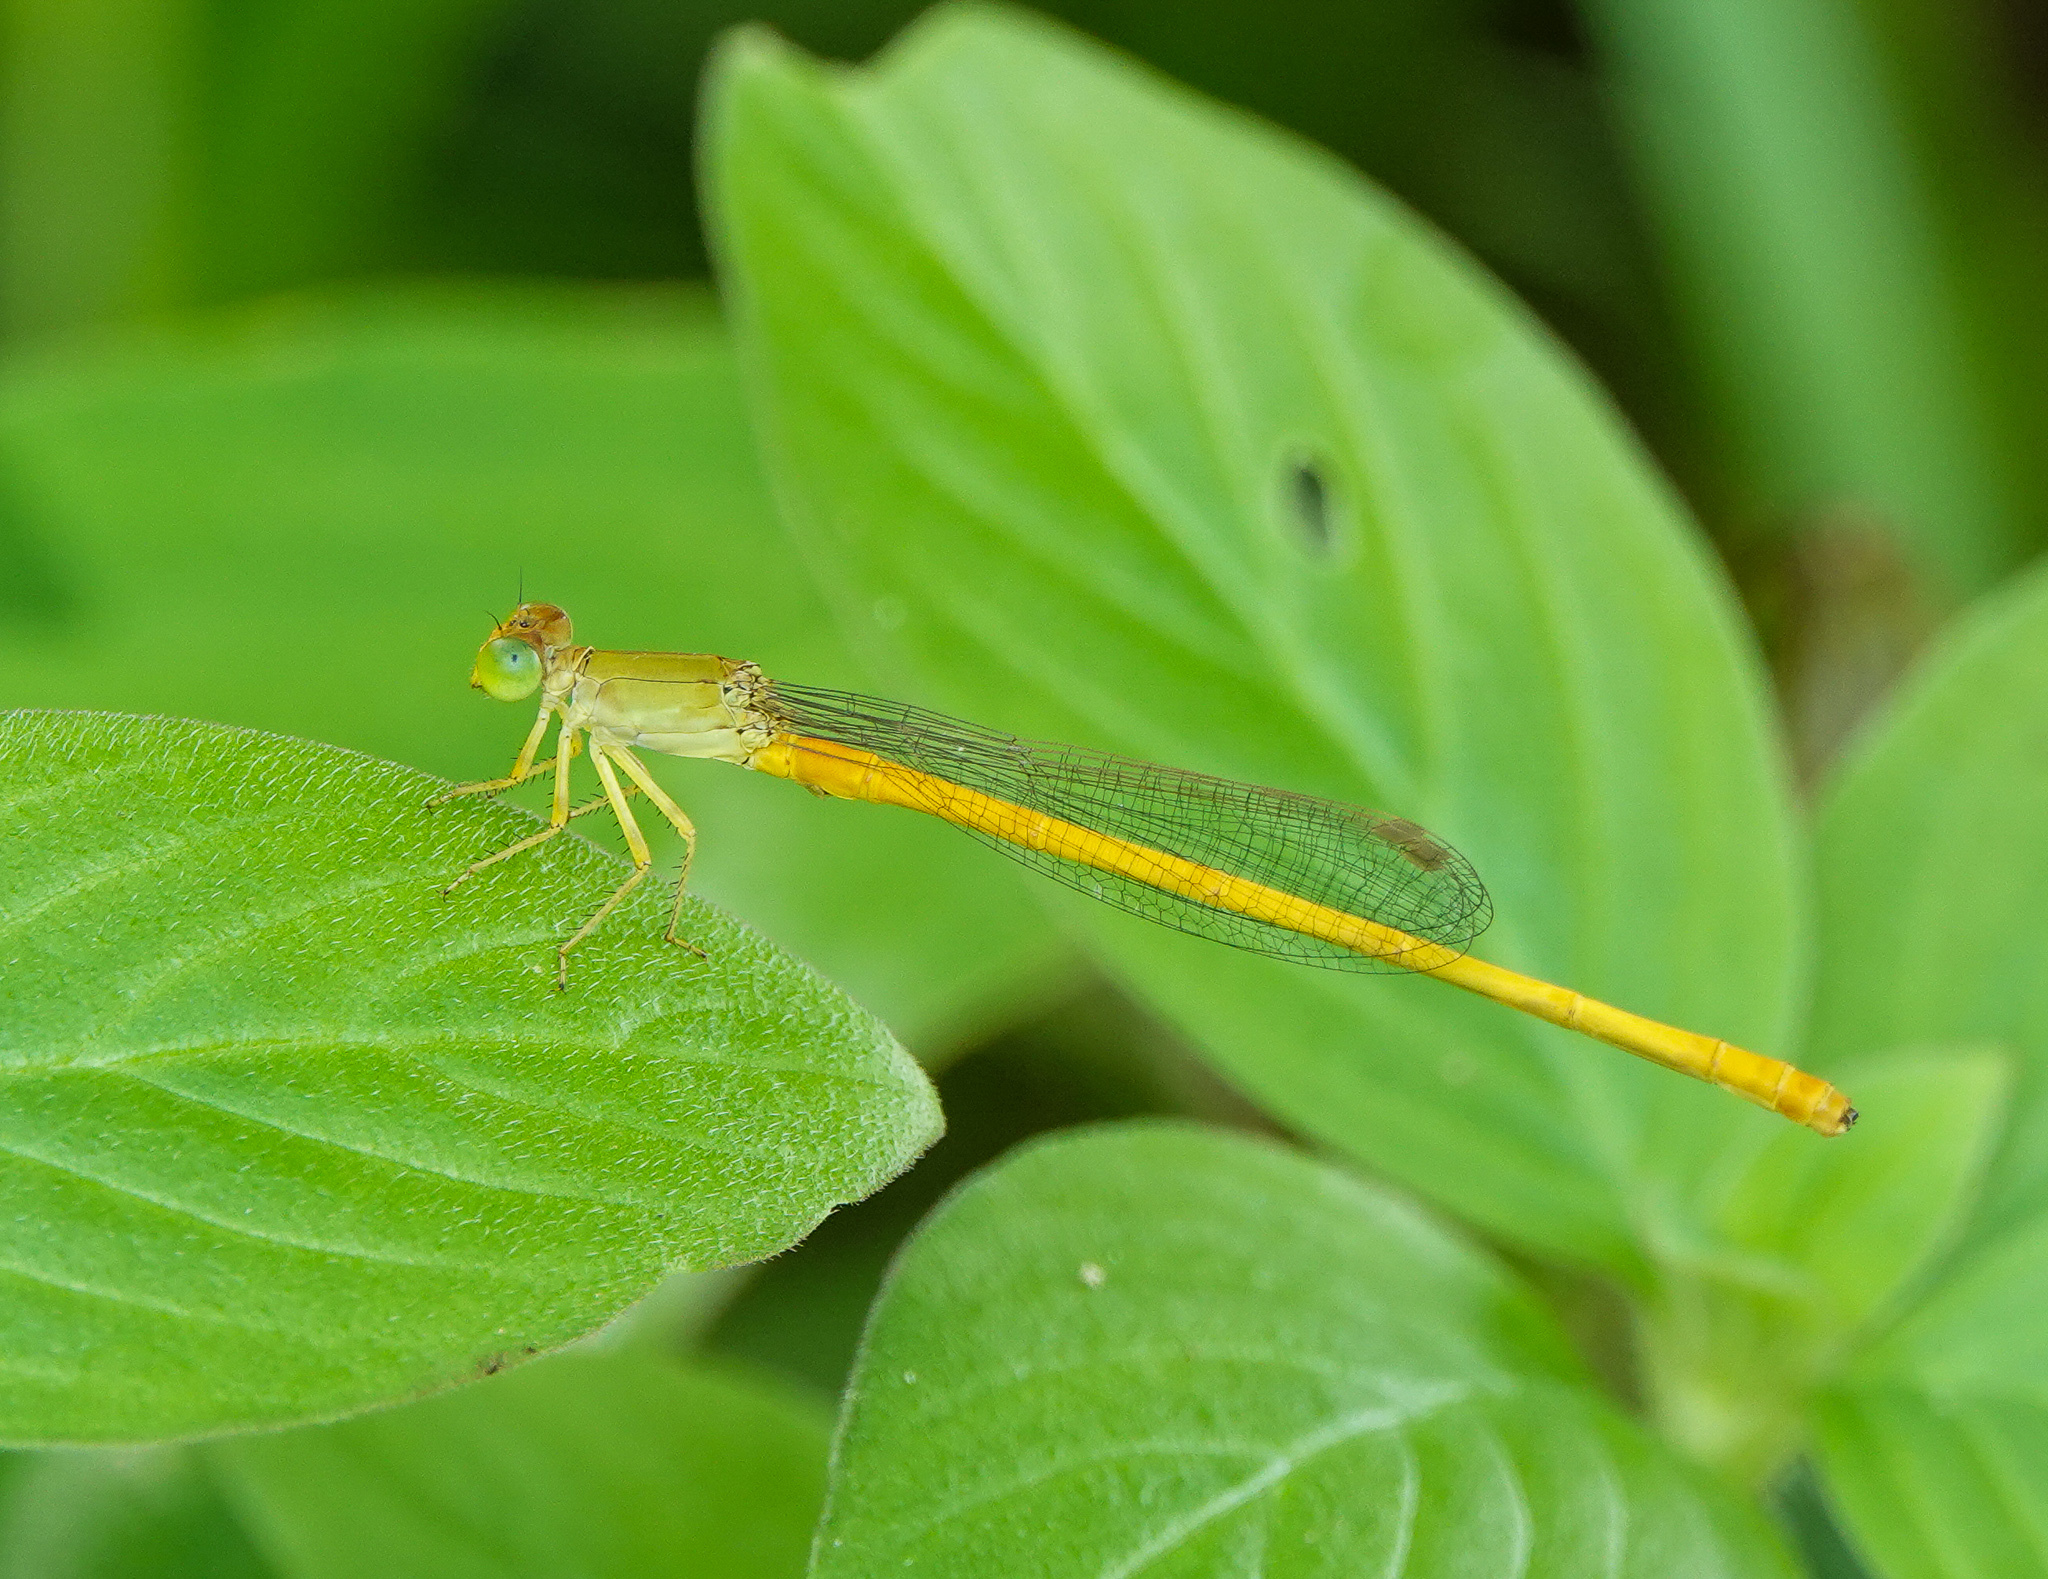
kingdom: Animalia
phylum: Arthropoda
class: Insecta
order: Odonata
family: Coenagrionidae
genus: Ceriagrion
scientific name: Ceriagrion coromandelianum
